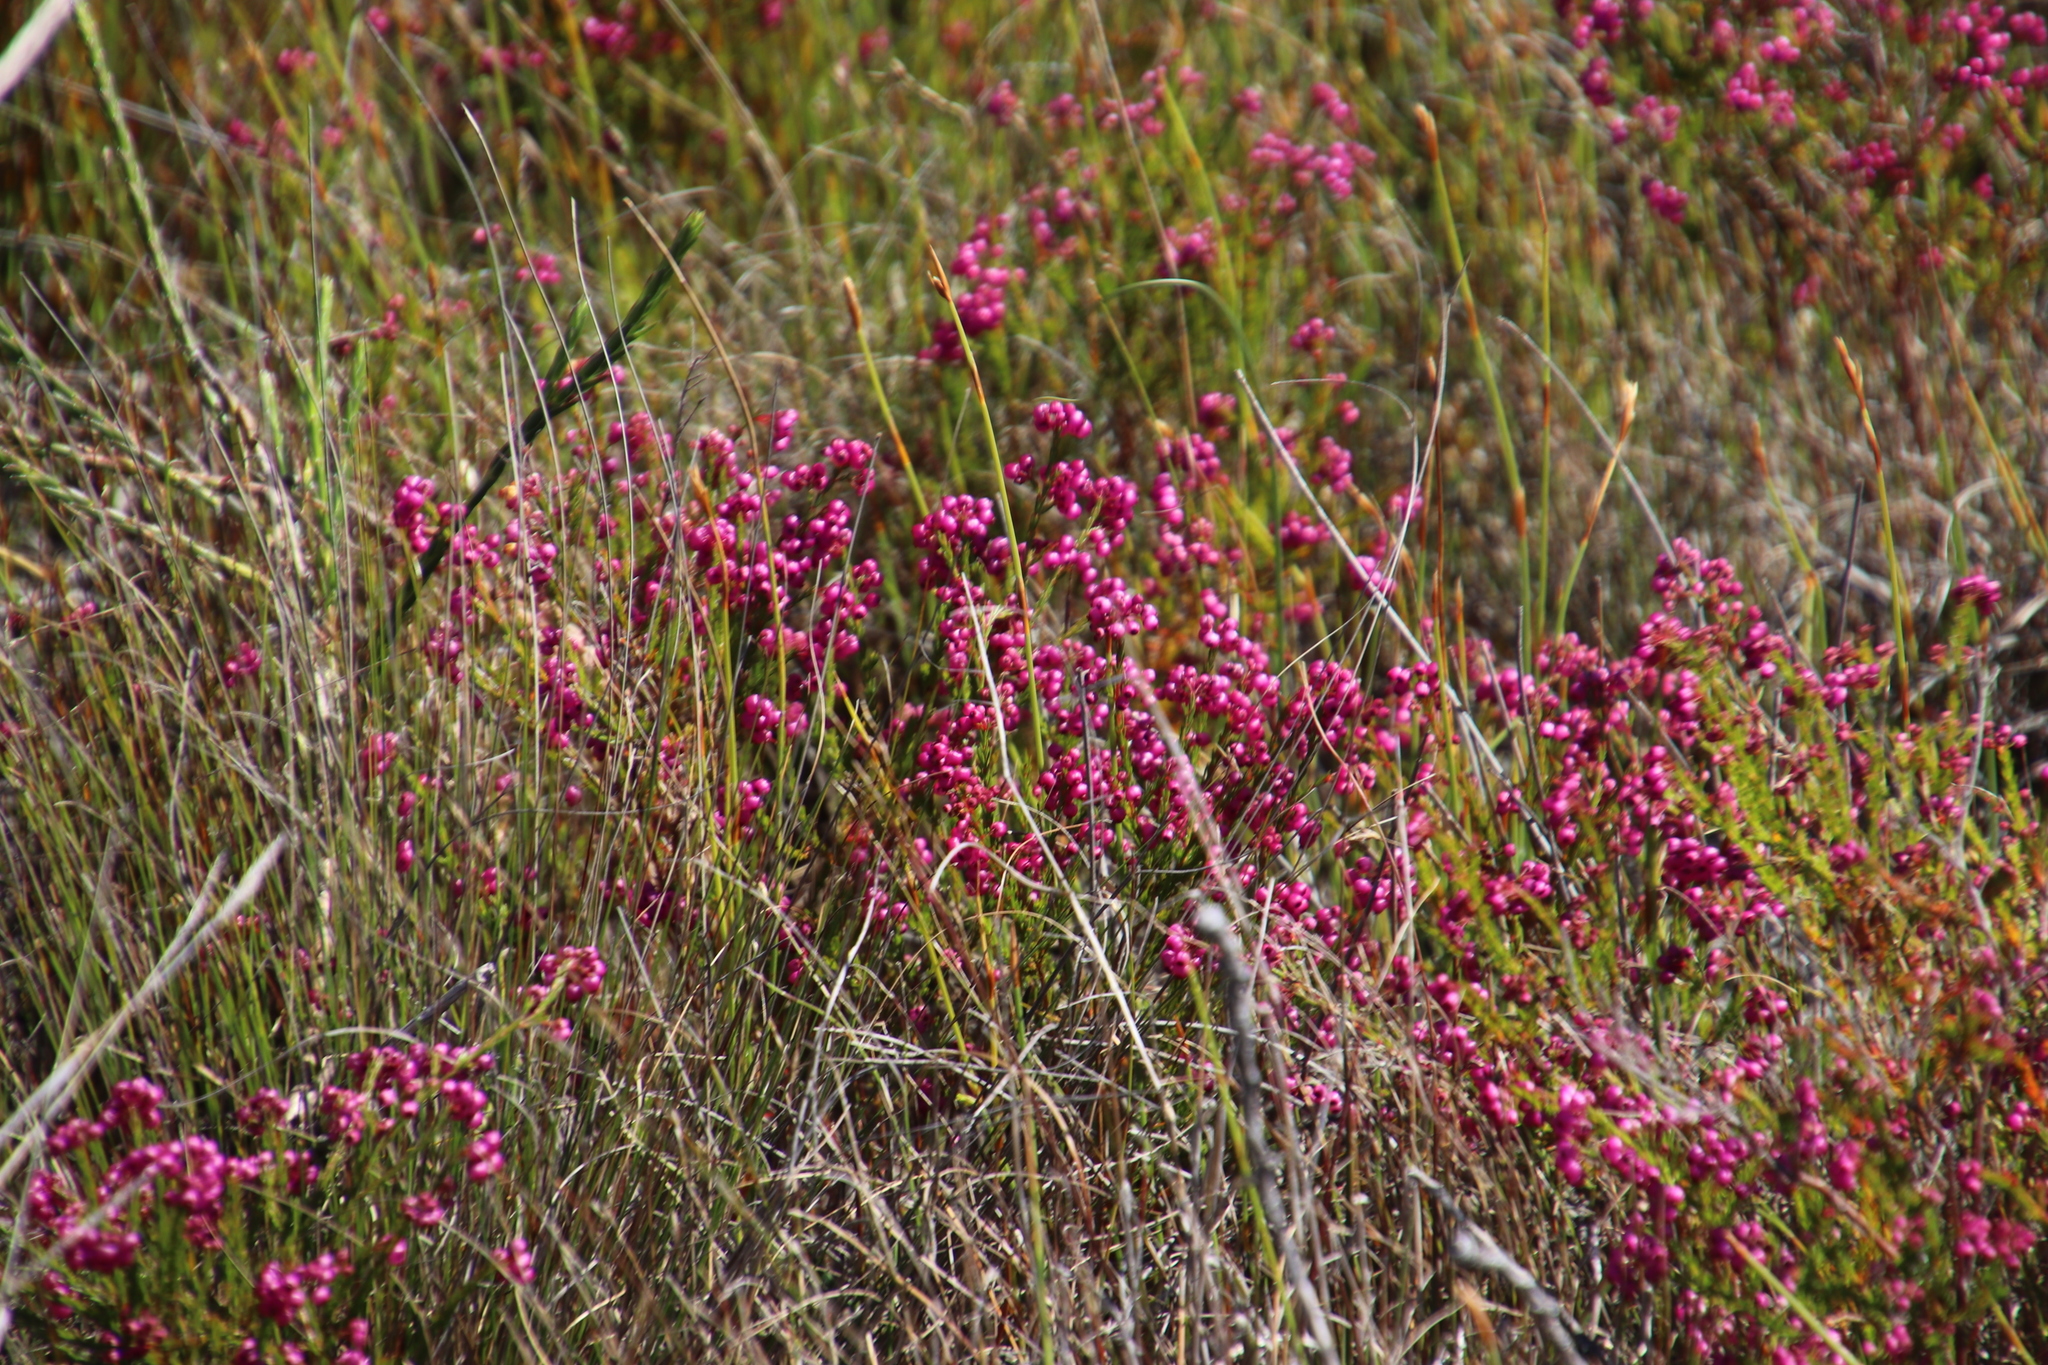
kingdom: Plantae
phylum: Tracheophyta
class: Magnoliopsida
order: Ericales
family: Ericaceae
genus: Erica
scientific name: Erica multumbellifera
